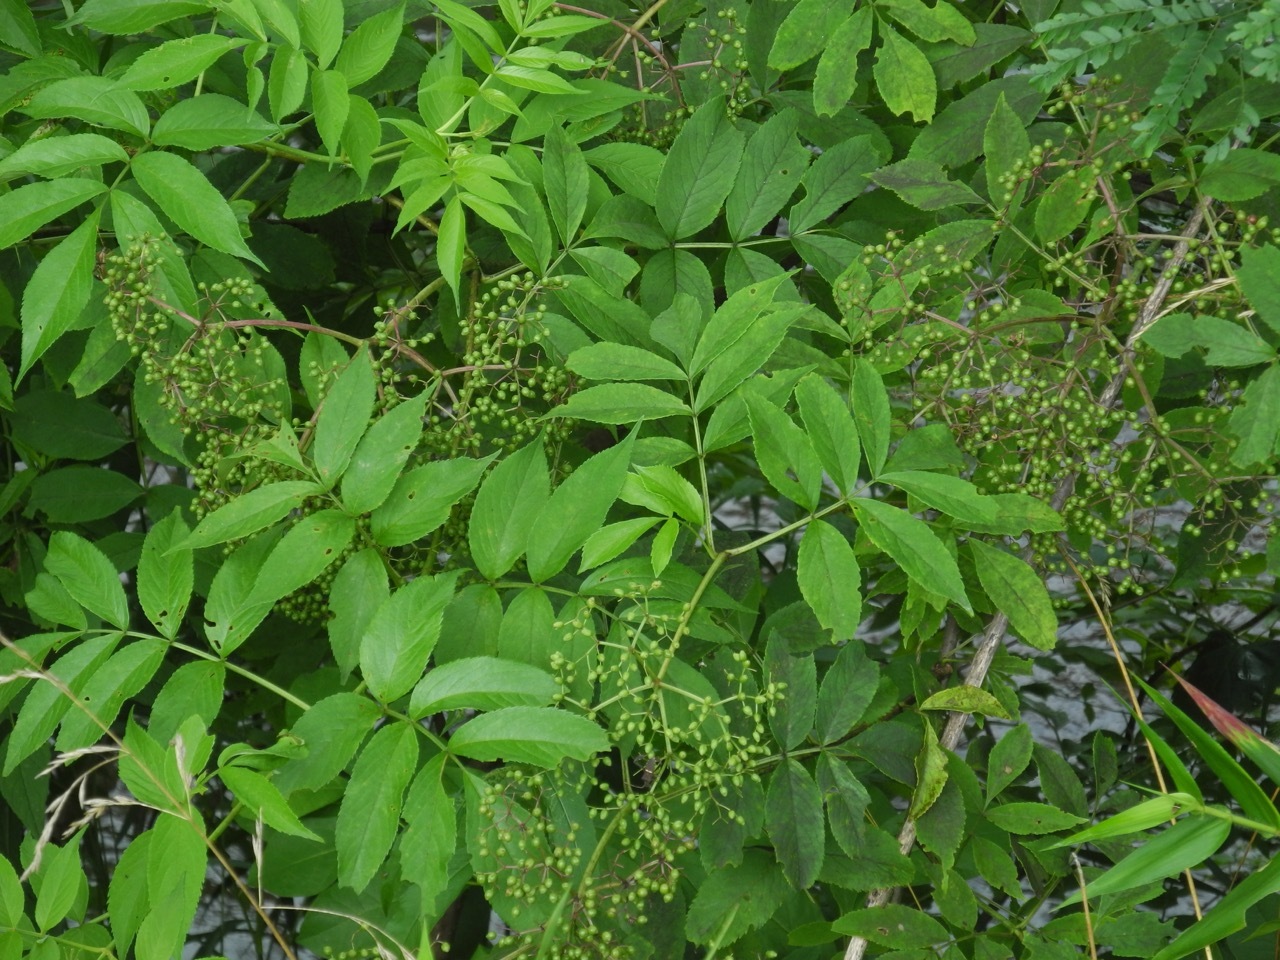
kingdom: Plantae
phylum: Tracheophyta
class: Magnoliopsida
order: Dipsacales
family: Viburnaceae
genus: Sambucus
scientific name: Sambucus canadensis
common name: American elder
